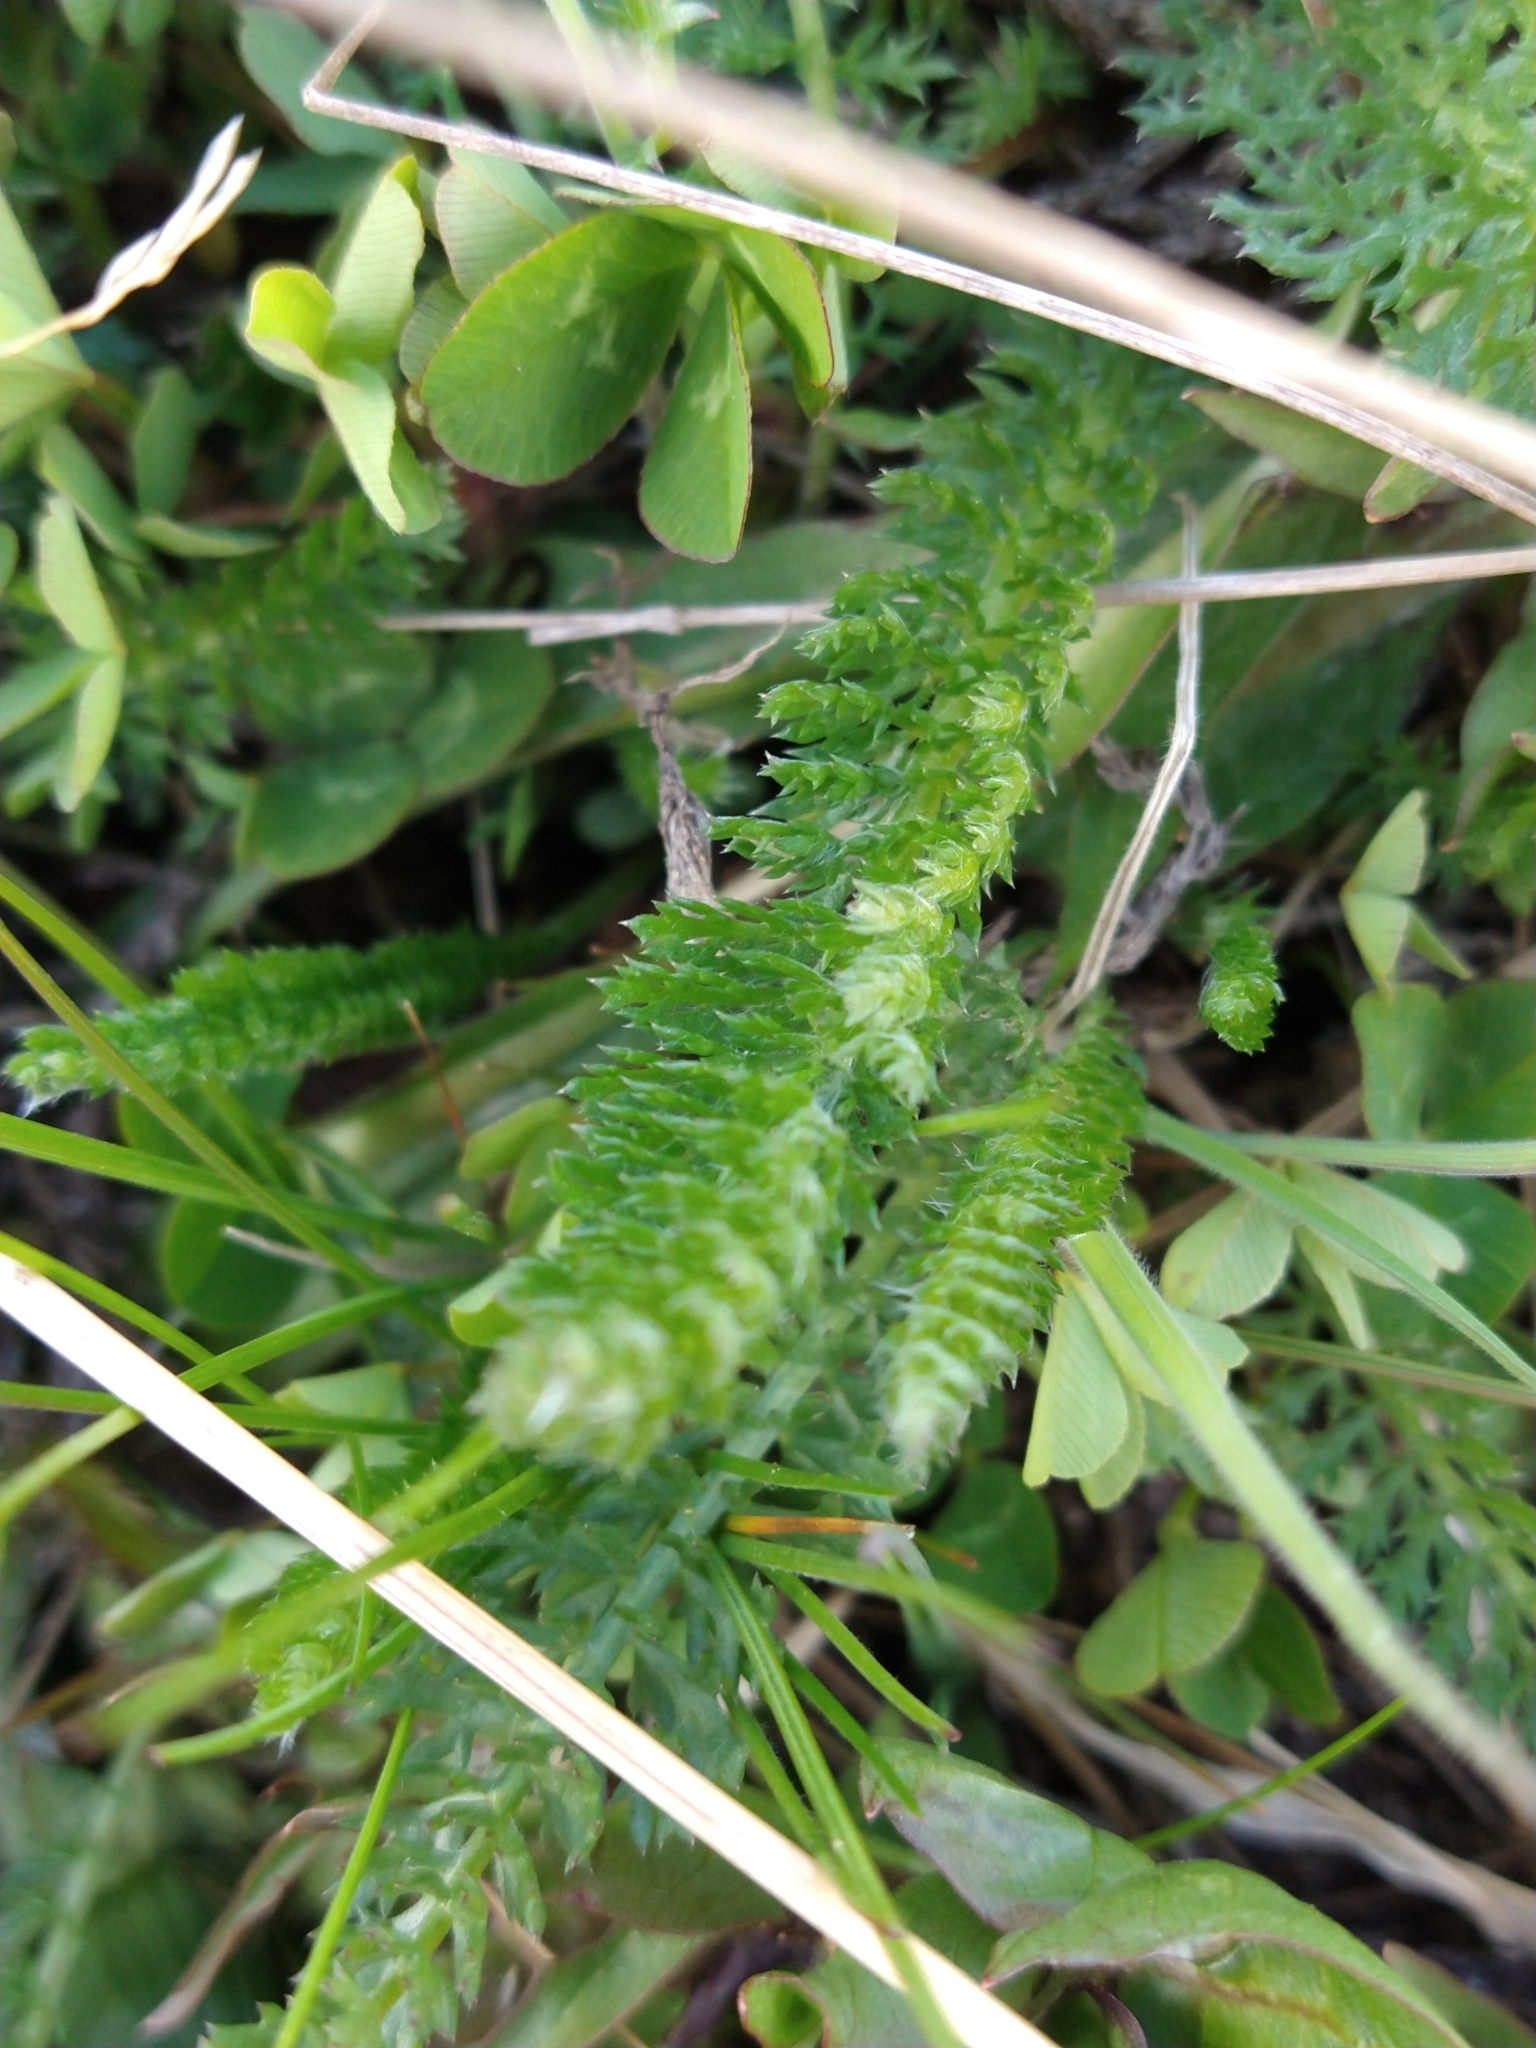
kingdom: Plantae
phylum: Tracheophyta
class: Magnoliopsida
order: Asterales
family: Asteraceae
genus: Achillea
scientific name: Achillea millefolium
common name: Yarrow
